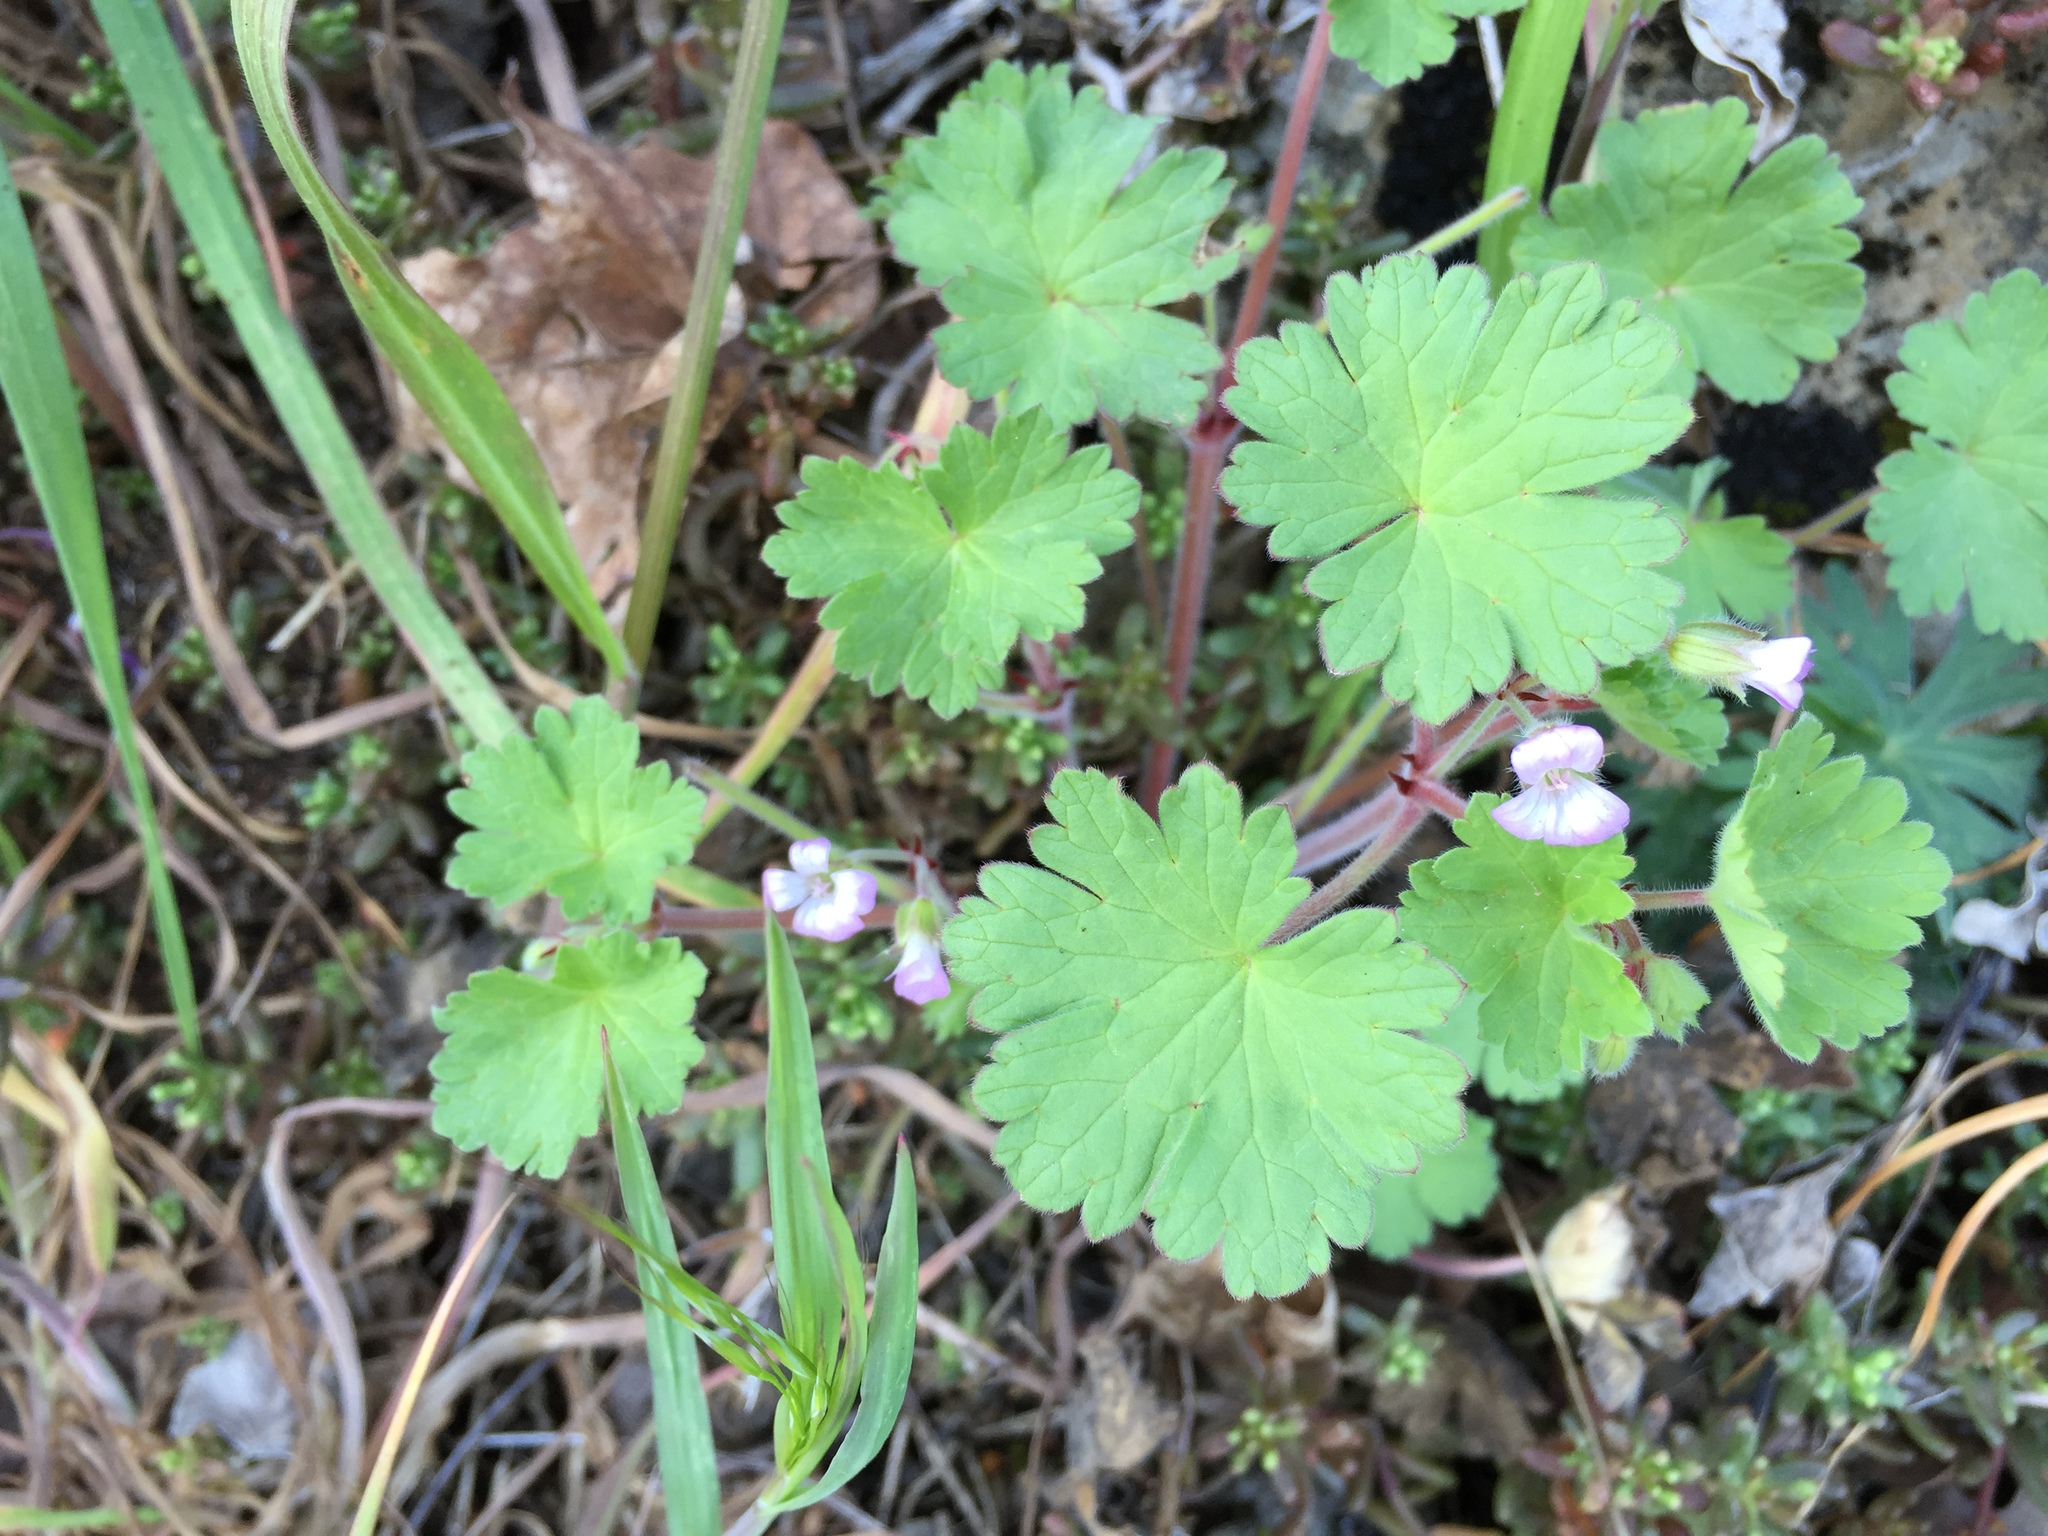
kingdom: Plantae
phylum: Tracheophyta
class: Magnoliopsida
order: Geraniales
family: Geraniaceae
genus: Geranium
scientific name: Geranium rotundifolium
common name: Round-leaved crane's-bill
